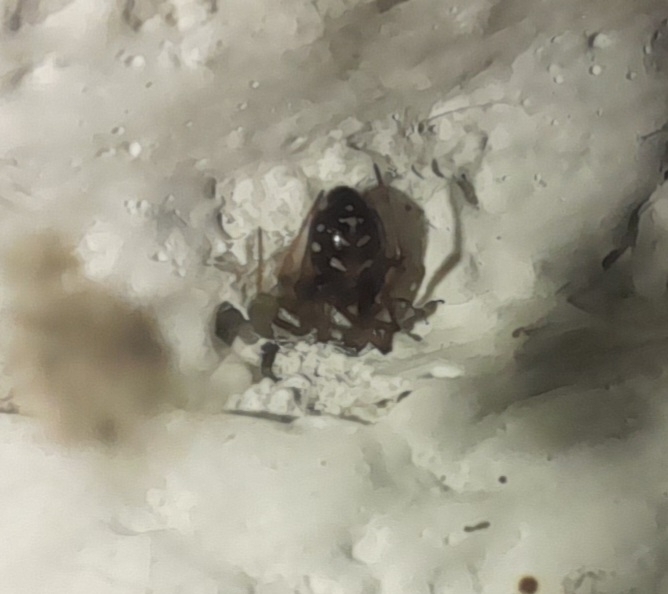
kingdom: Animalia
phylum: Arthropoda
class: Arachnida
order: Araneae
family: Theridiidae
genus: Steatoda
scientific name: Steatoda triangulosa
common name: Triangulate bud spider
